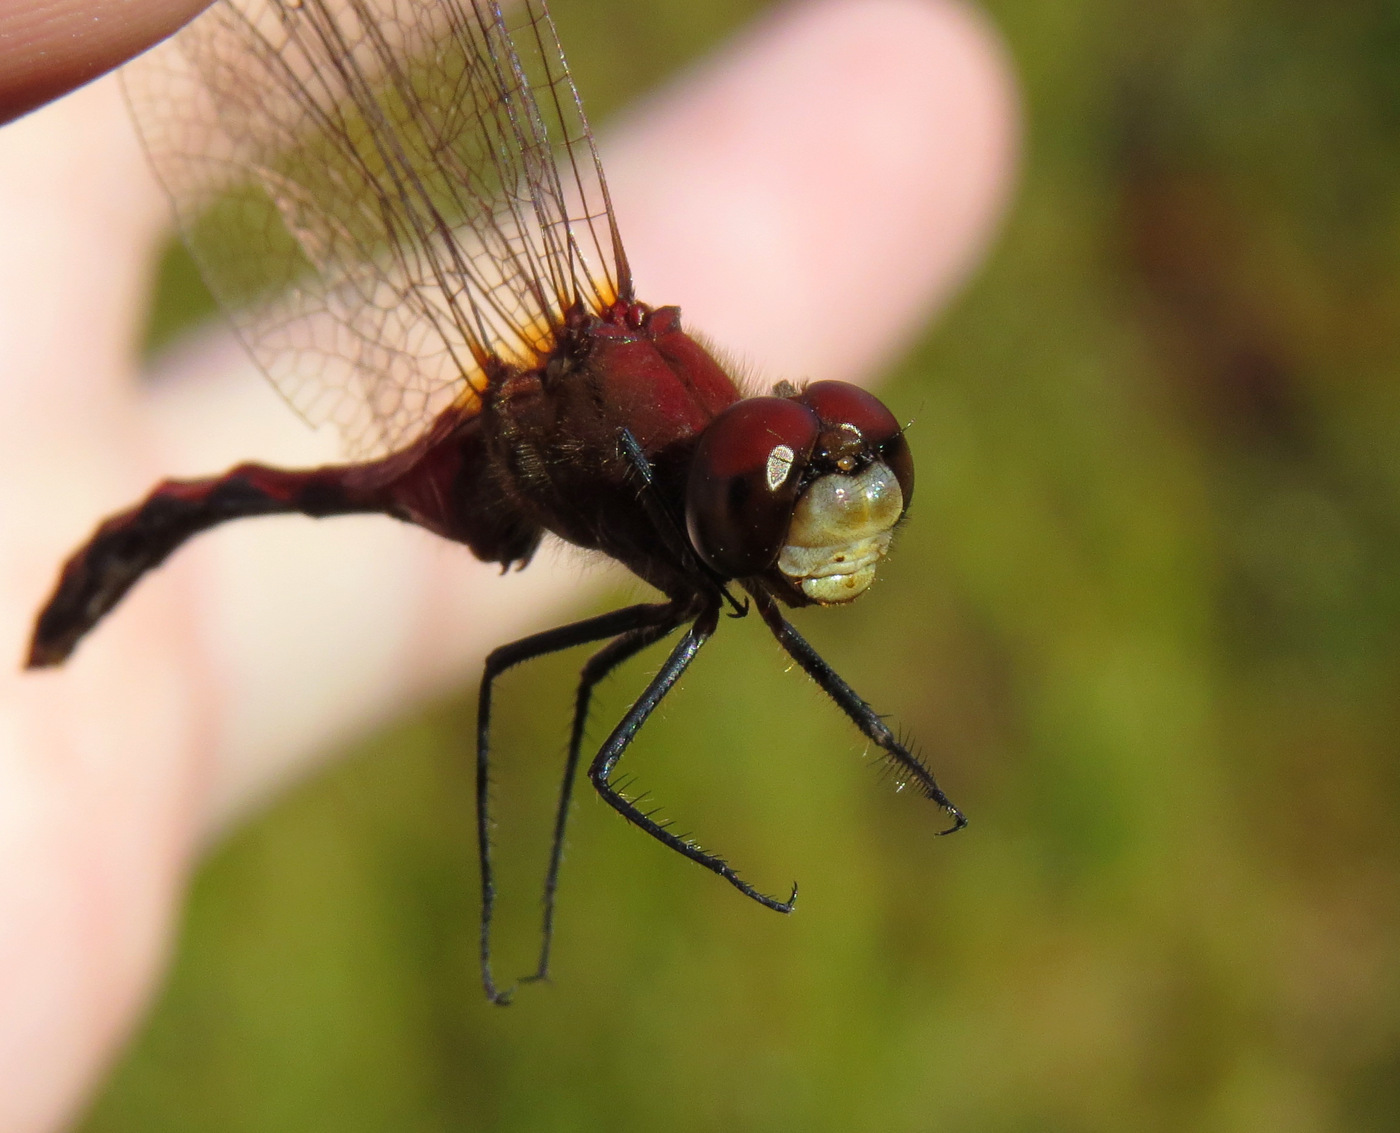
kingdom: Animalia
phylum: Arthropoda
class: Insecta
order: Odonata
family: Libellulidae
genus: Sympetrum
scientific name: Sympetrum internum
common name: Cherry-faced meadowhawk
